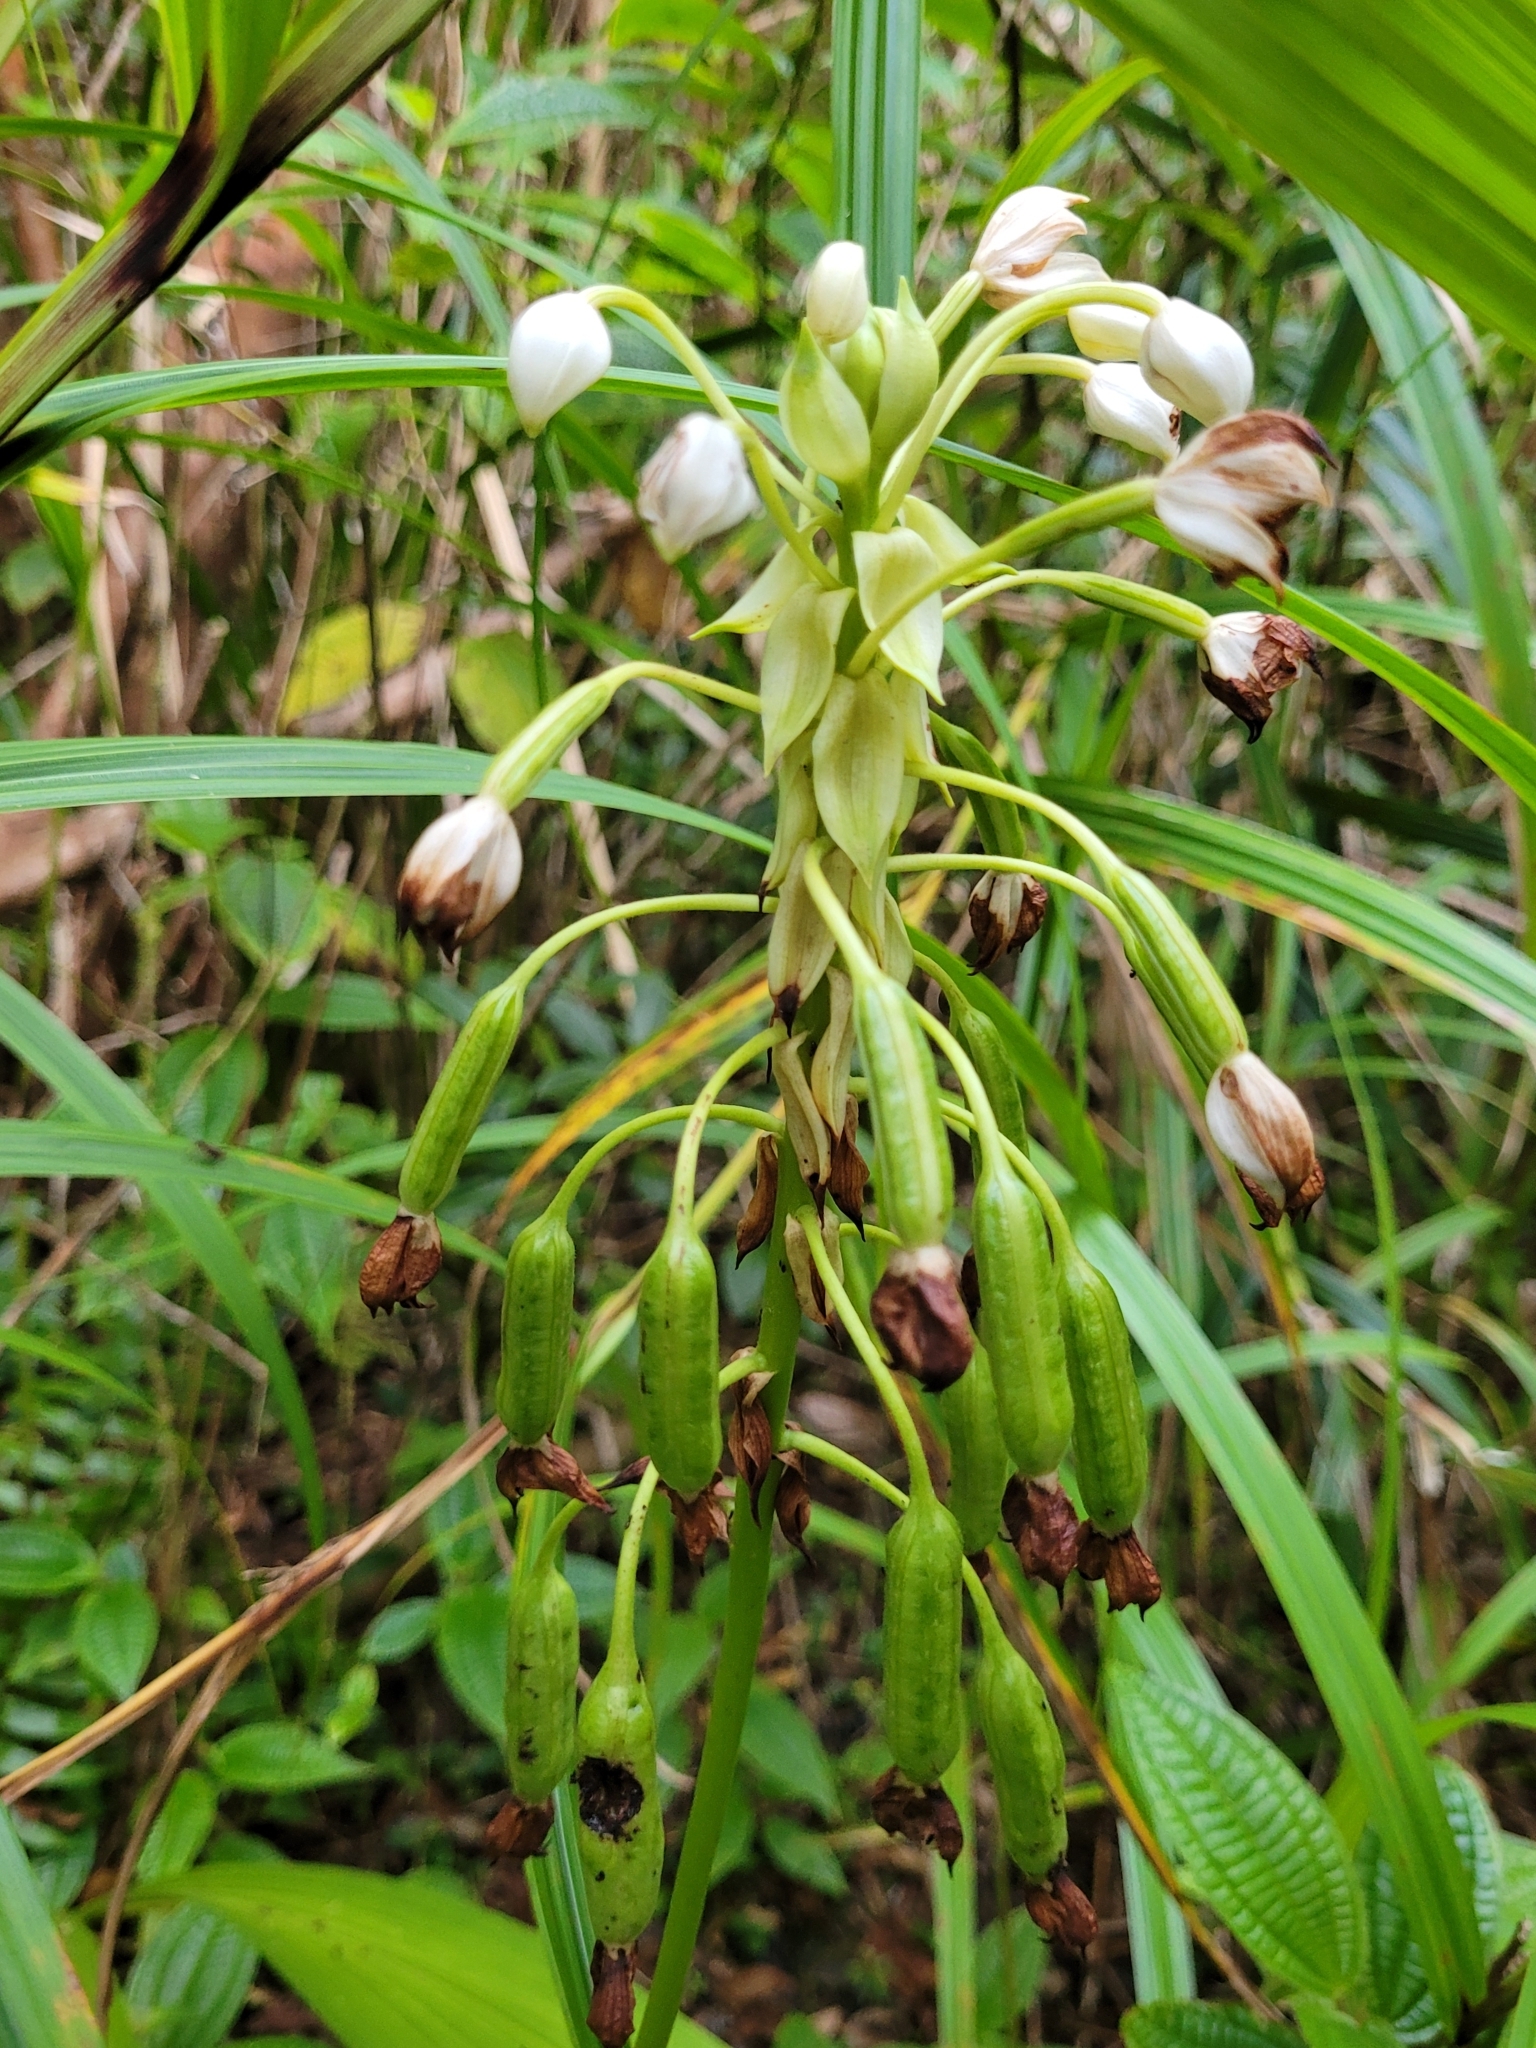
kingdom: Plantae
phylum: Tracheophyta
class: Liliopsida
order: Asparagales
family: Orchidaceae
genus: Spathoglottis
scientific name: Spathoglottis plicata
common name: Philippine ground orchid
